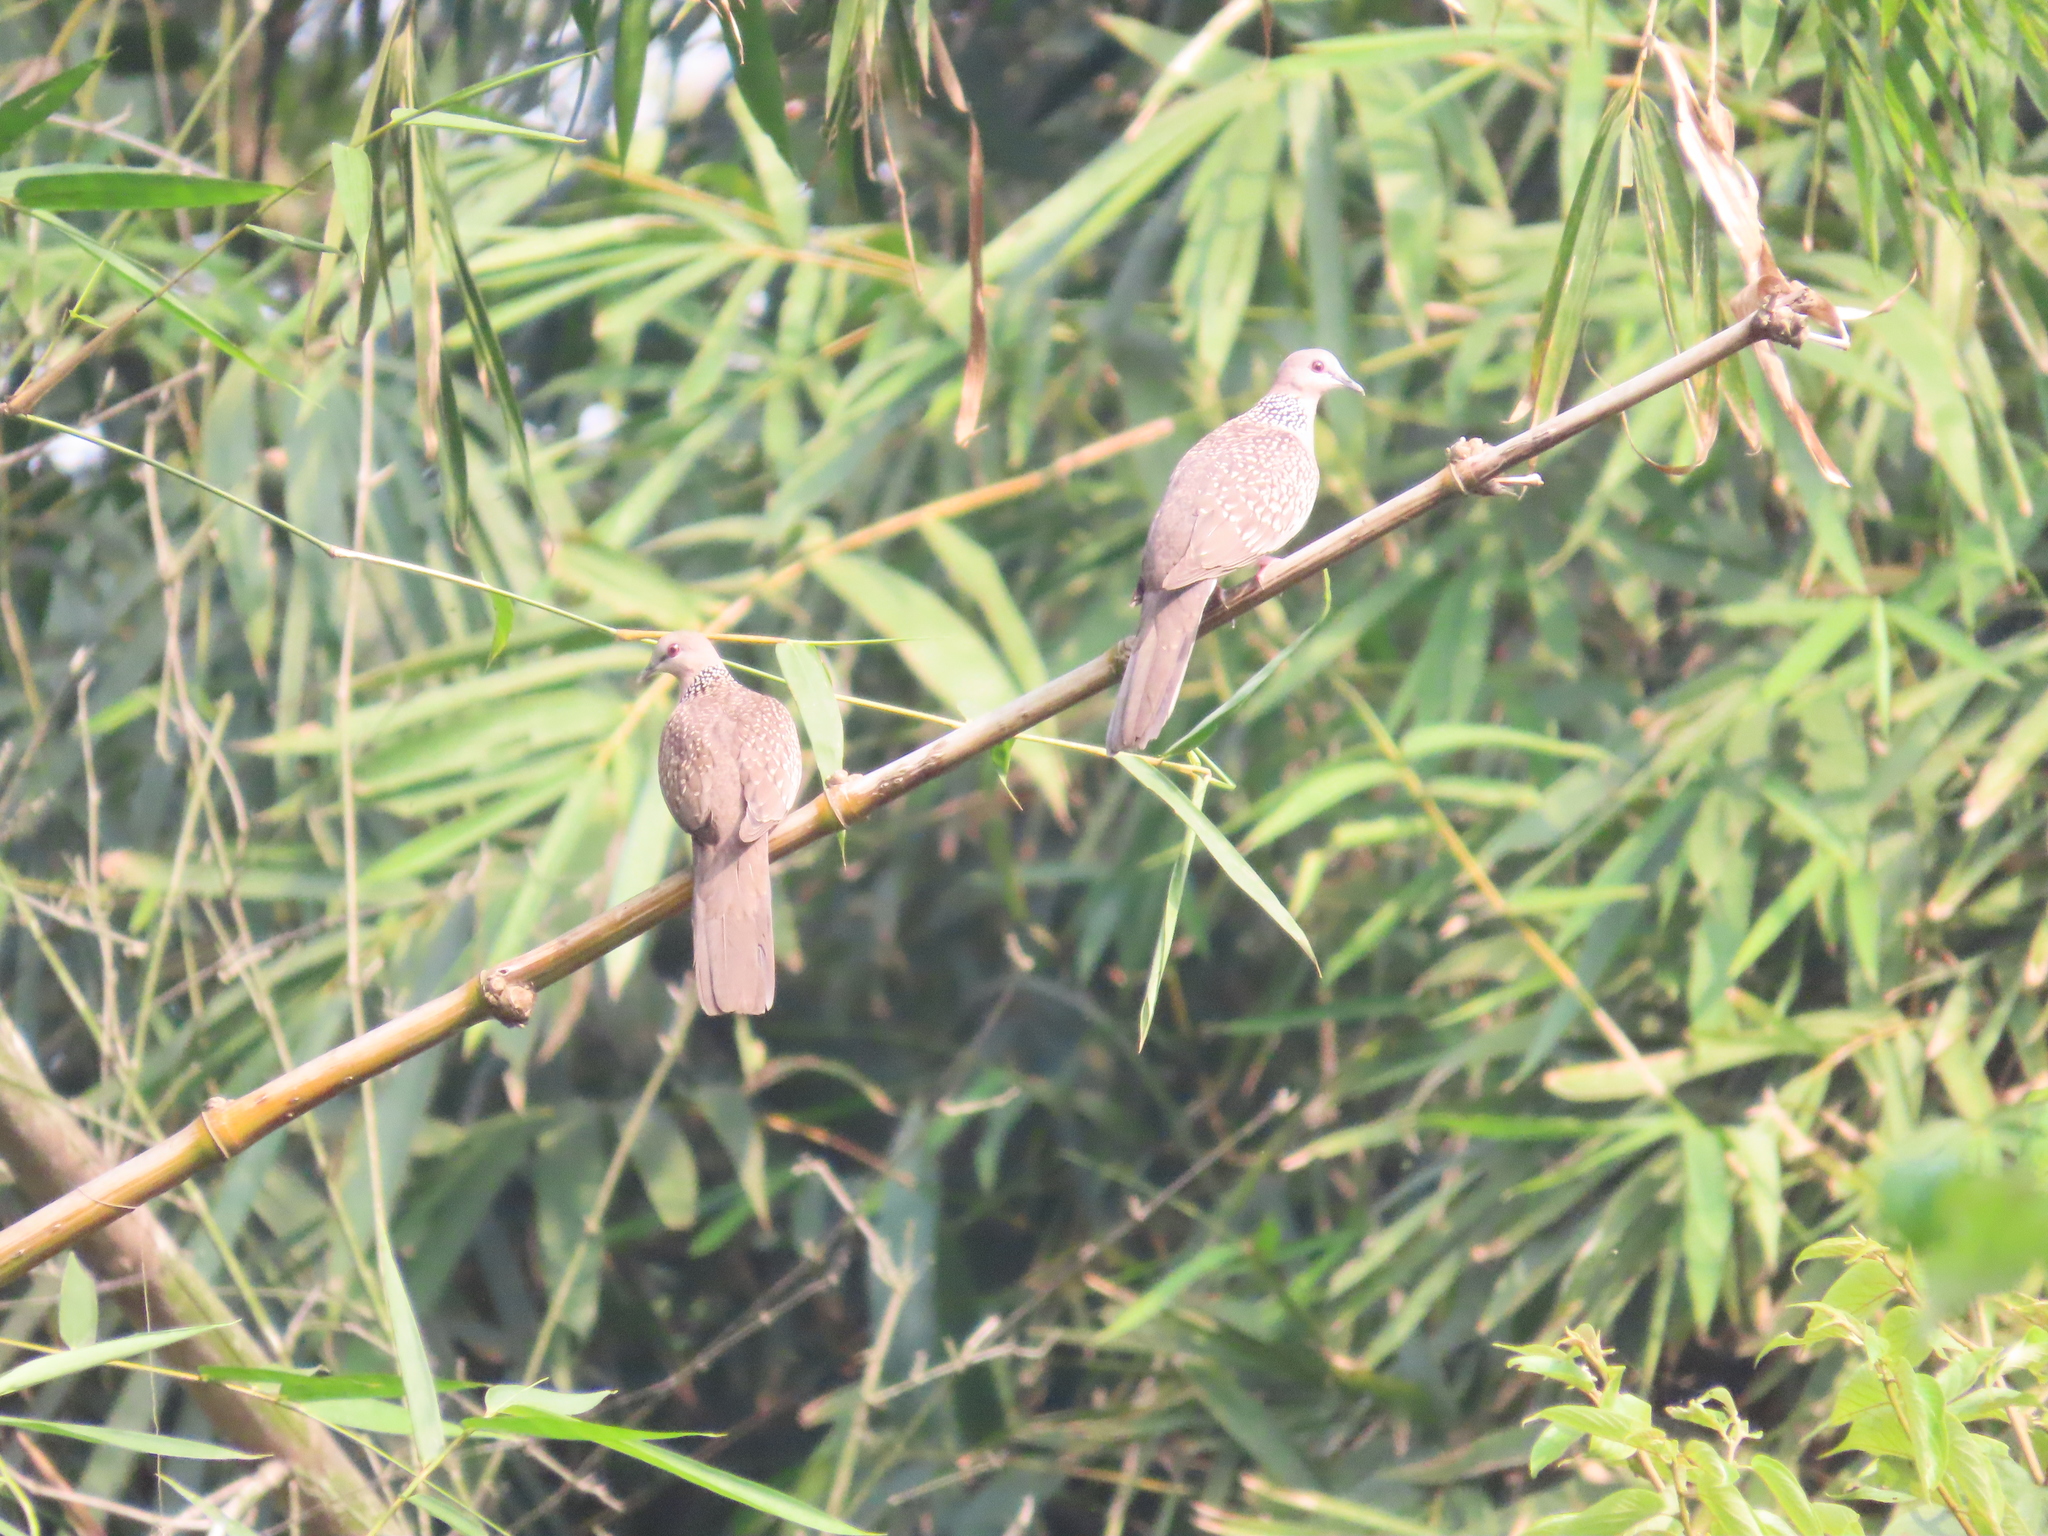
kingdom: Animalia
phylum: Chordata
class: Aves
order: Columbiformes
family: Columbidae
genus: Spilopelia
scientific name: Spilopelia chinensis
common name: Spotted dove
